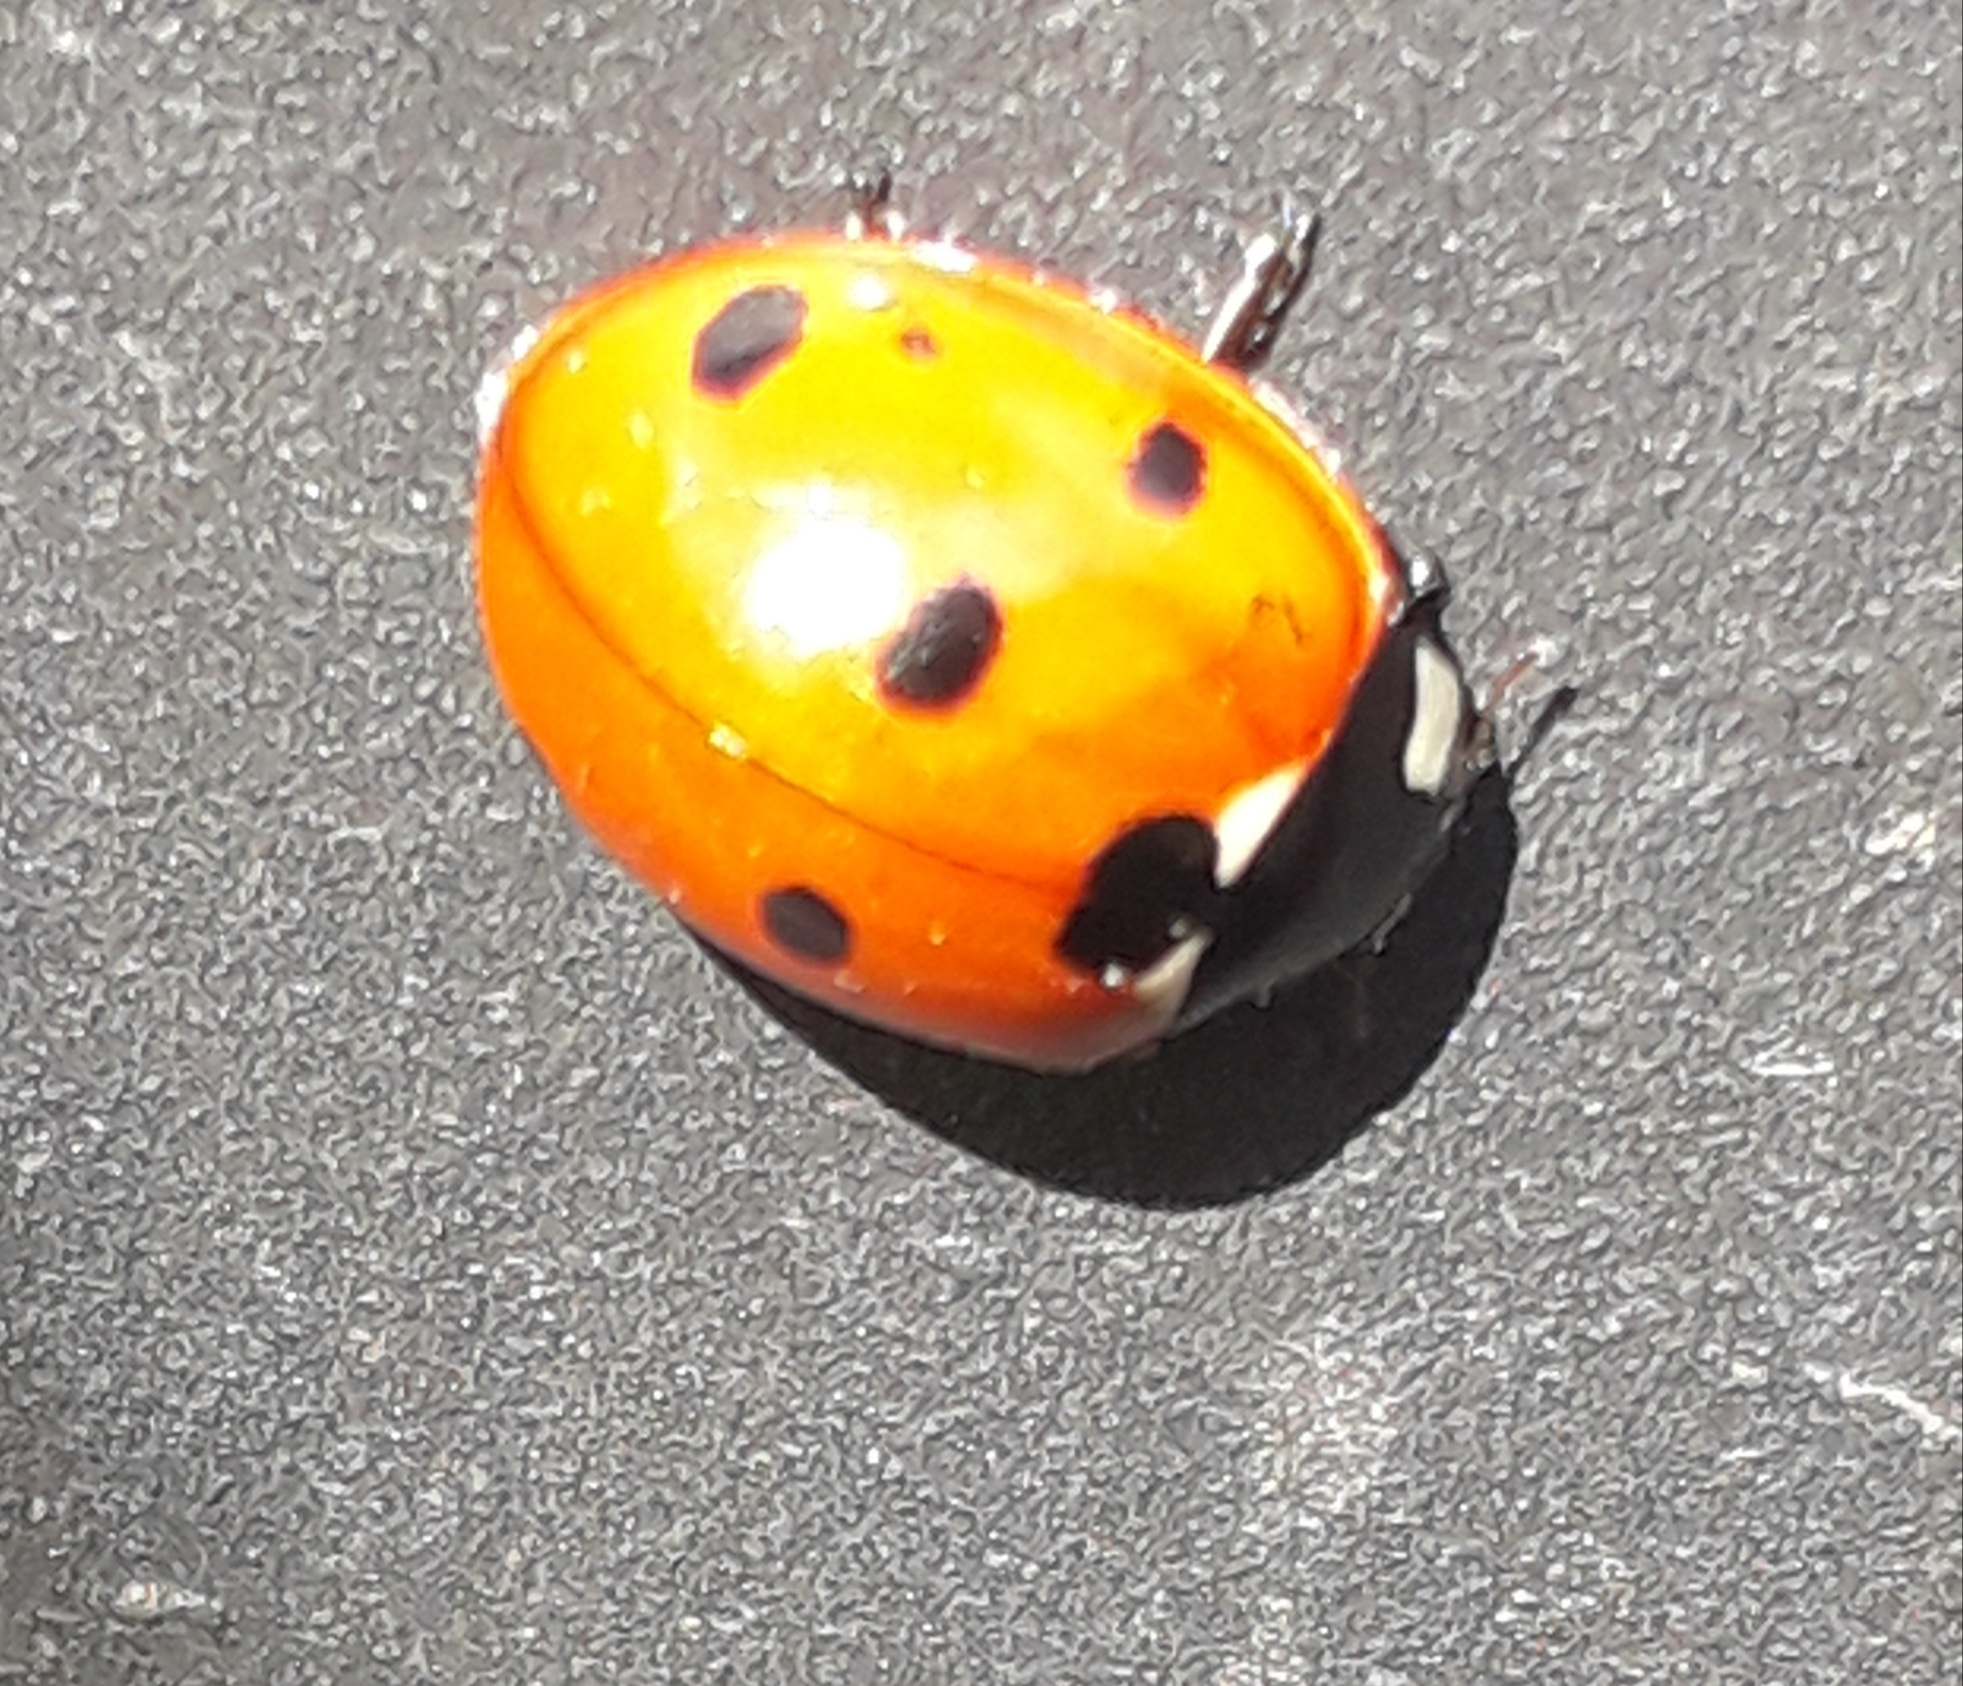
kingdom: Animalia
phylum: Arthropoda
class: Insecta
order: Coleoptera
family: Coccinellidae
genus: Coccinella
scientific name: Coccinella septempunctata
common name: Sevenspotted lady beetle
